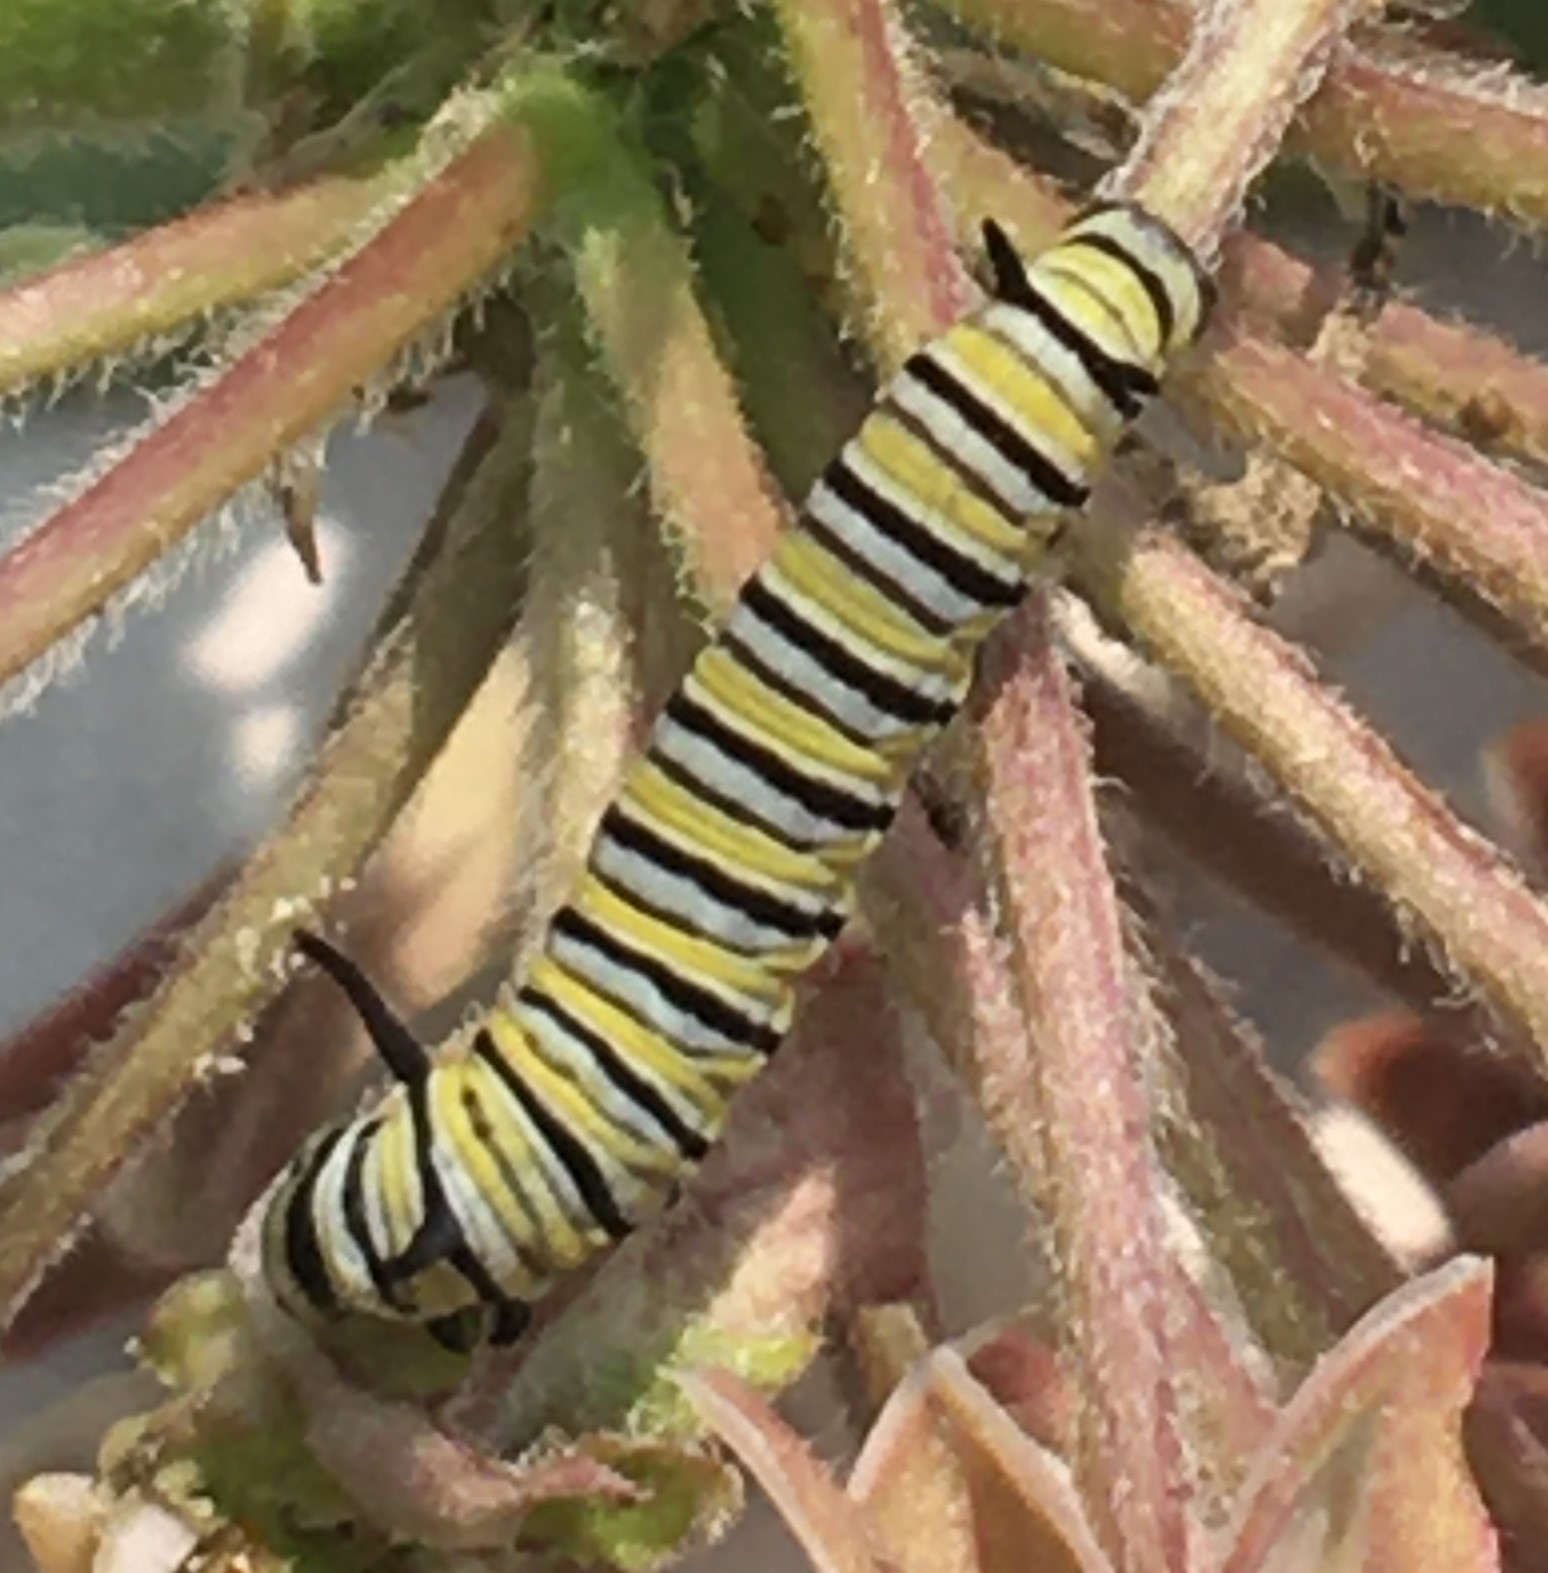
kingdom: Animalia
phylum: Arthropoda
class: Insecta
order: Lepidoptera
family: Nymphalidae
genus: Danaus
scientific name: Danaus plexippus
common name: Monarch
